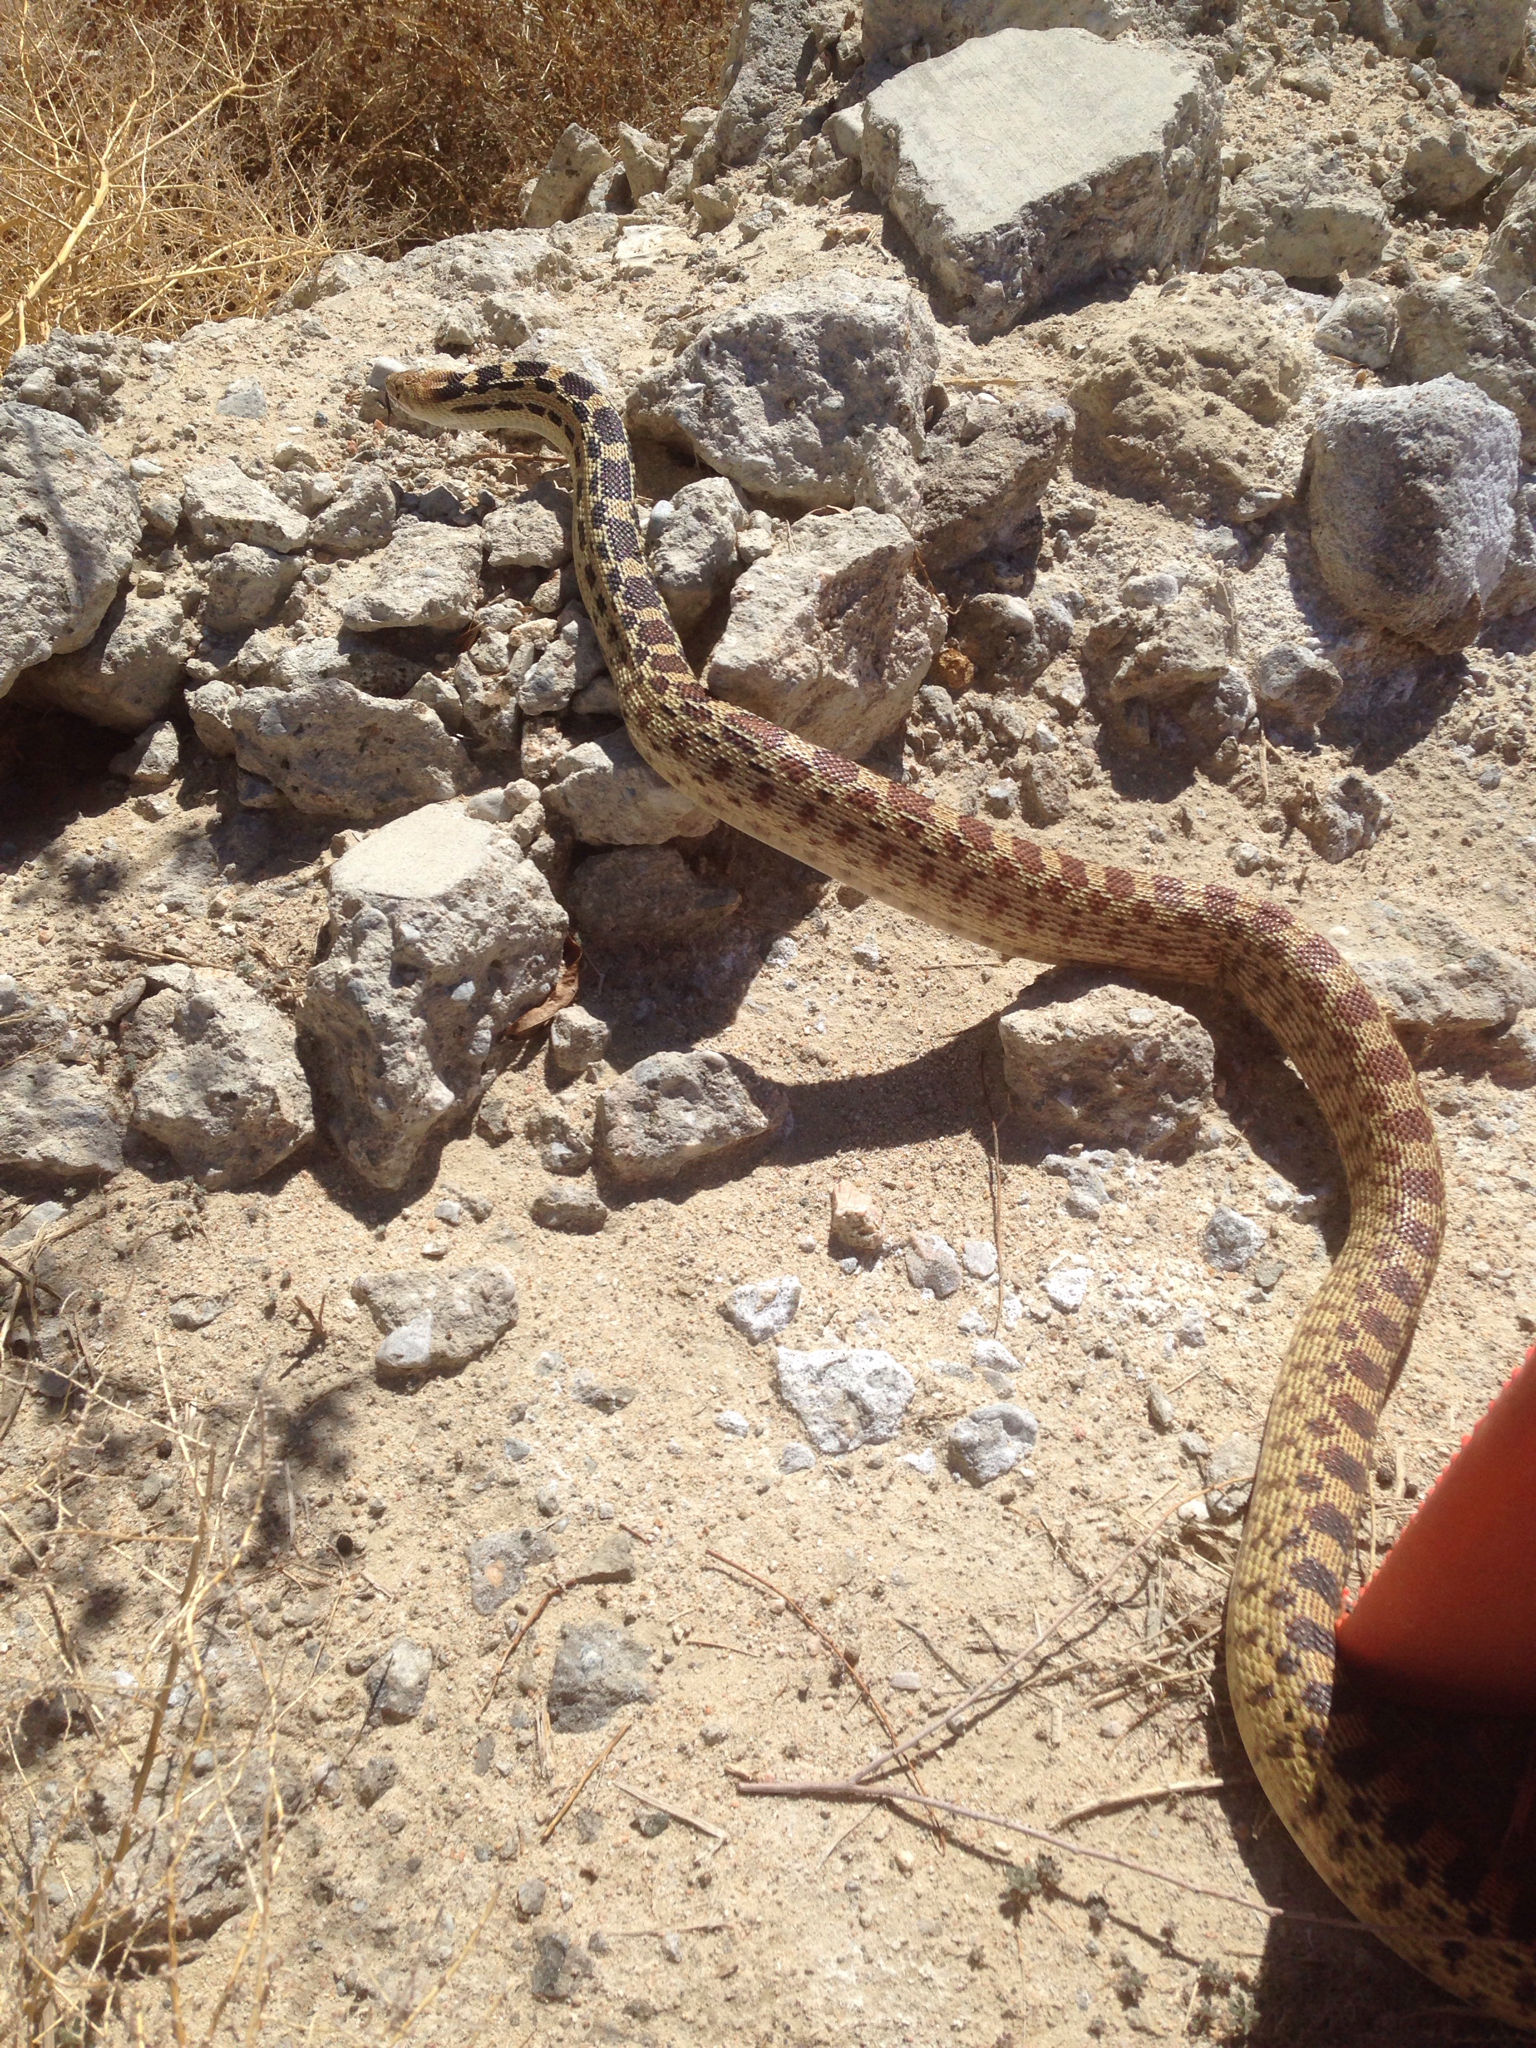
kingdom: Animalia
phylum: Chordata
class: Squamata
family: Colubridae
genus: Pituophis
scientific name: Pituophis catenifer
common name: Gopher snake
